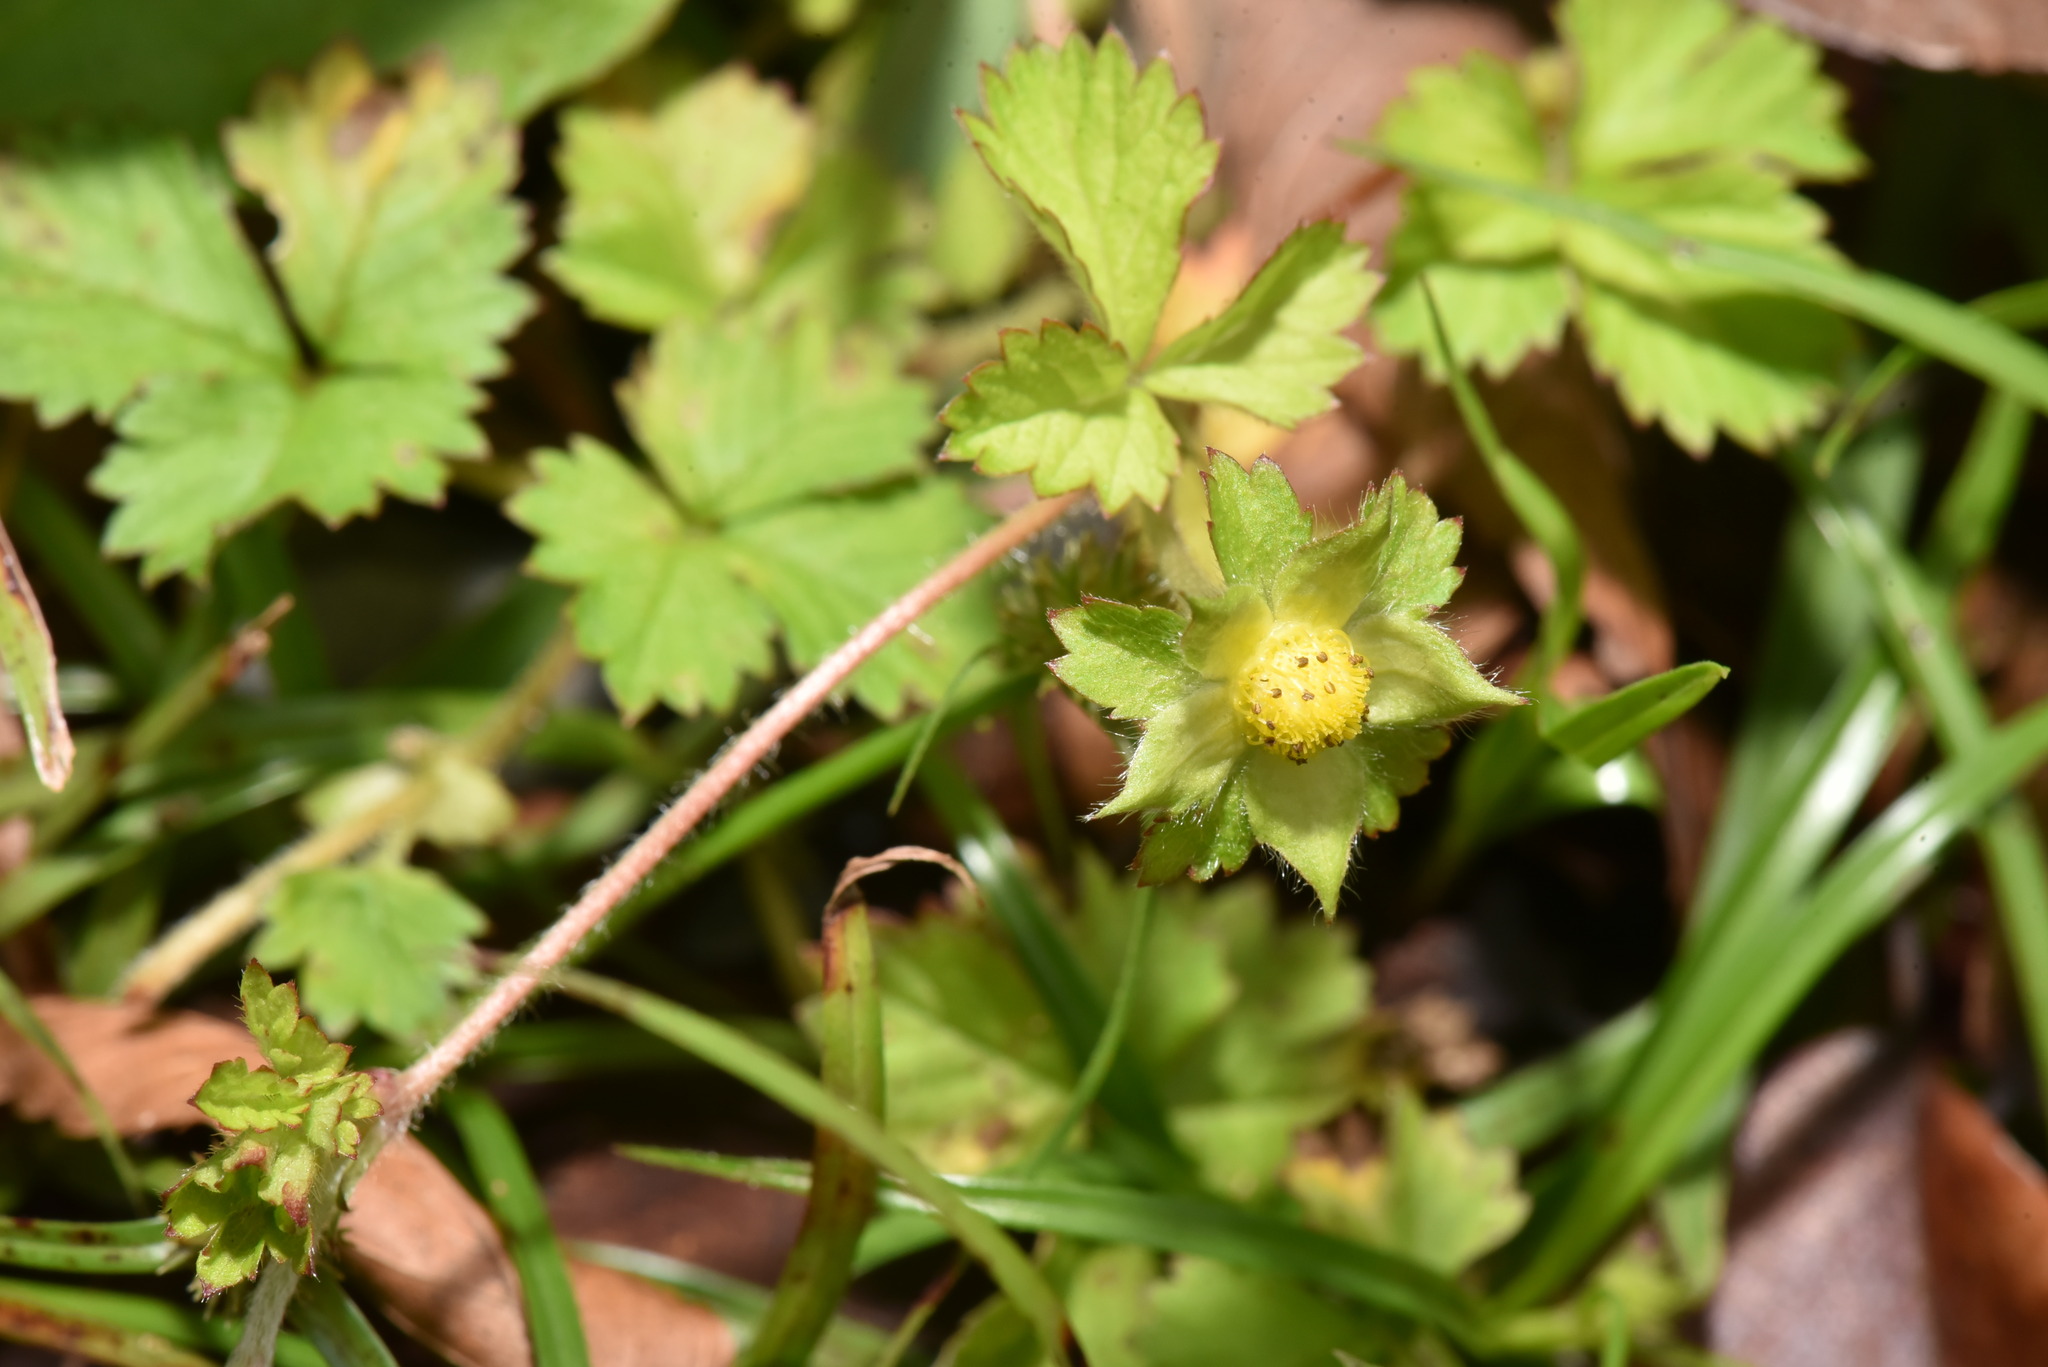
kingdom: Plantae
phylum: Tracheophyta
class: Magnoliopsida
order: Rosales
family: Rosaceae
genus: Potentilla
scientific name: Potentilla wallichiana
